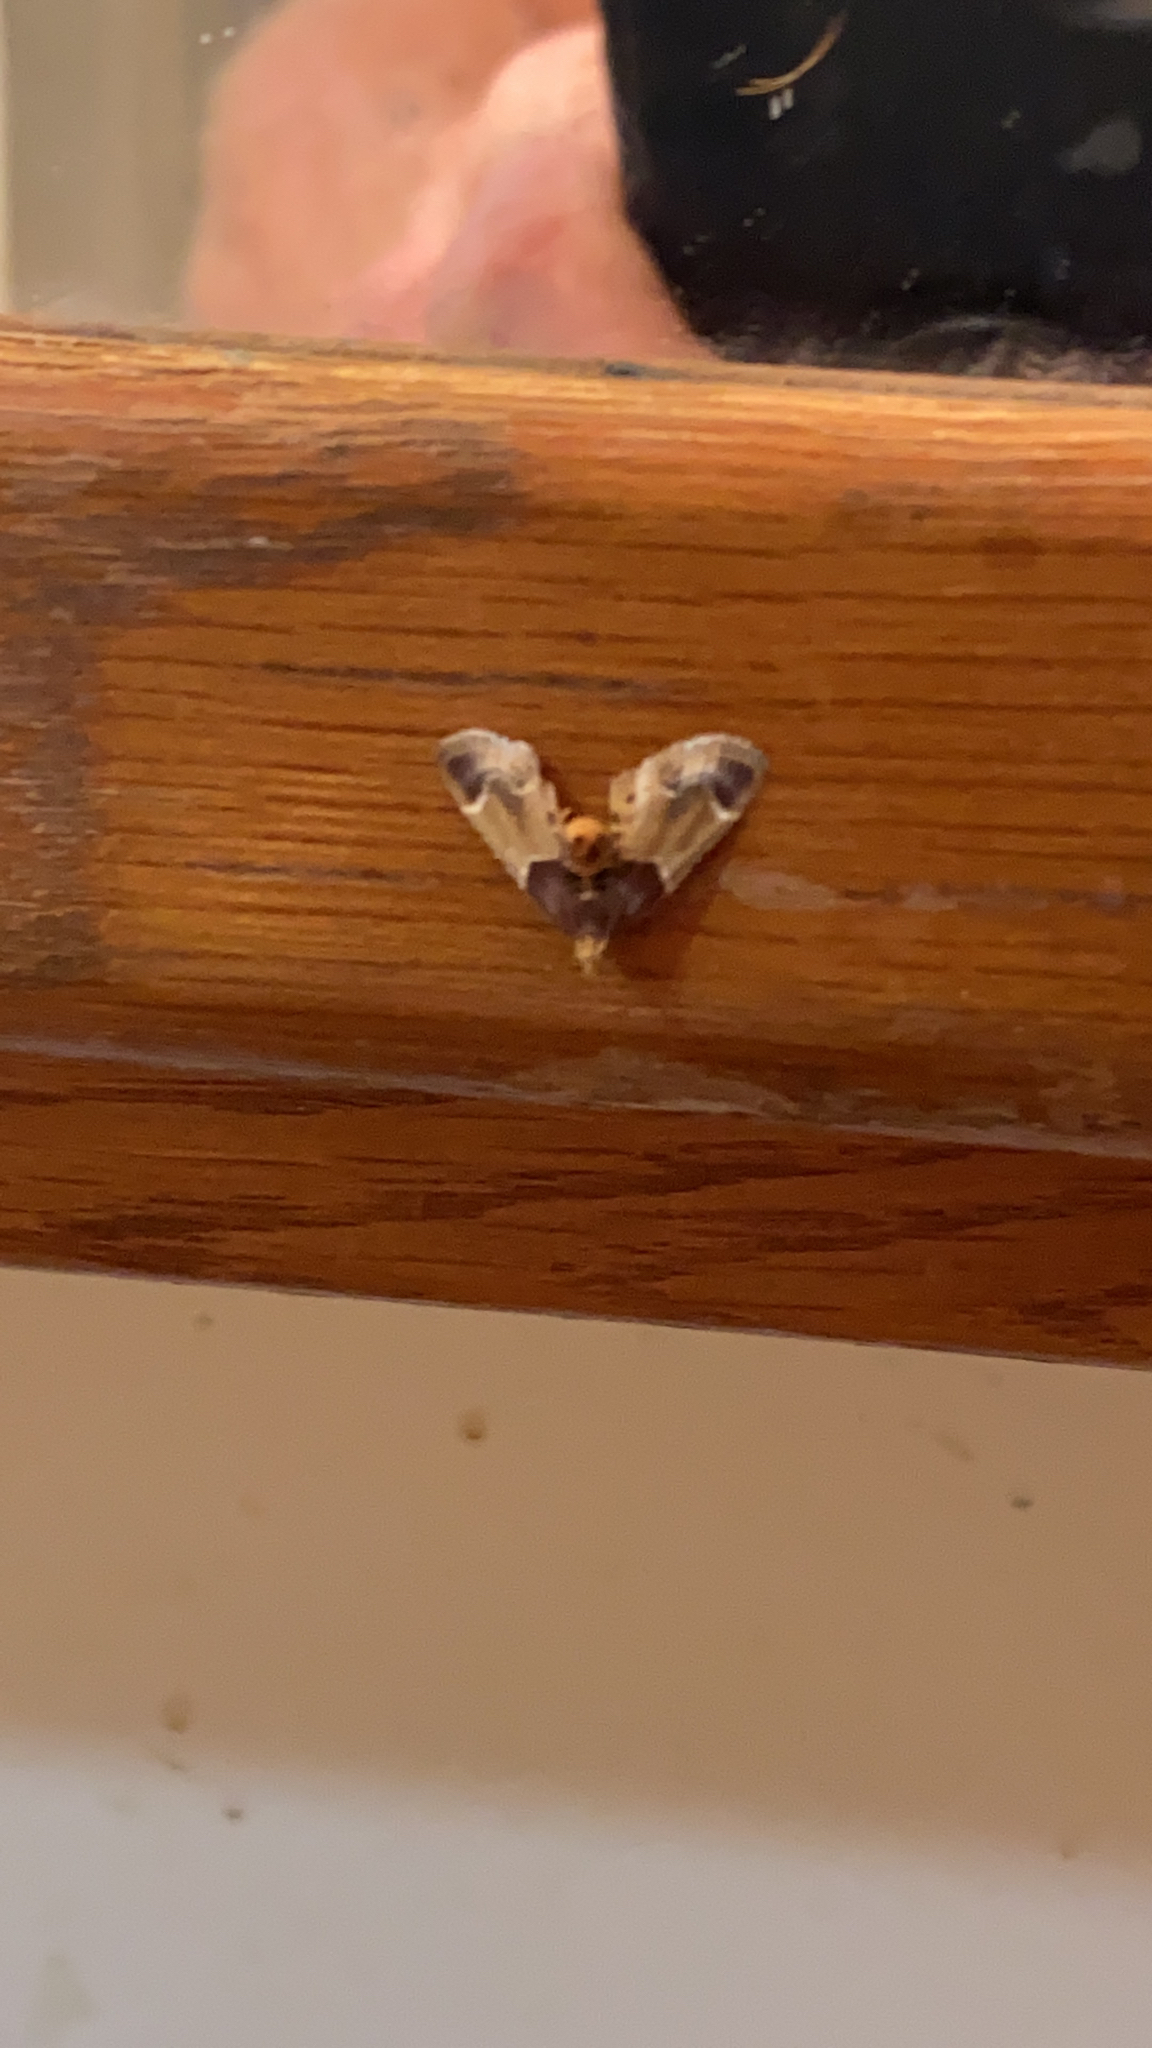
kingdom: Animalia
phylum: Arthropoda
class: Insecta
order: Lepidoptera
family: Pyralidae
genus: Pyralis
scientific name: Pyralis farinalis
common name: Meal moth
